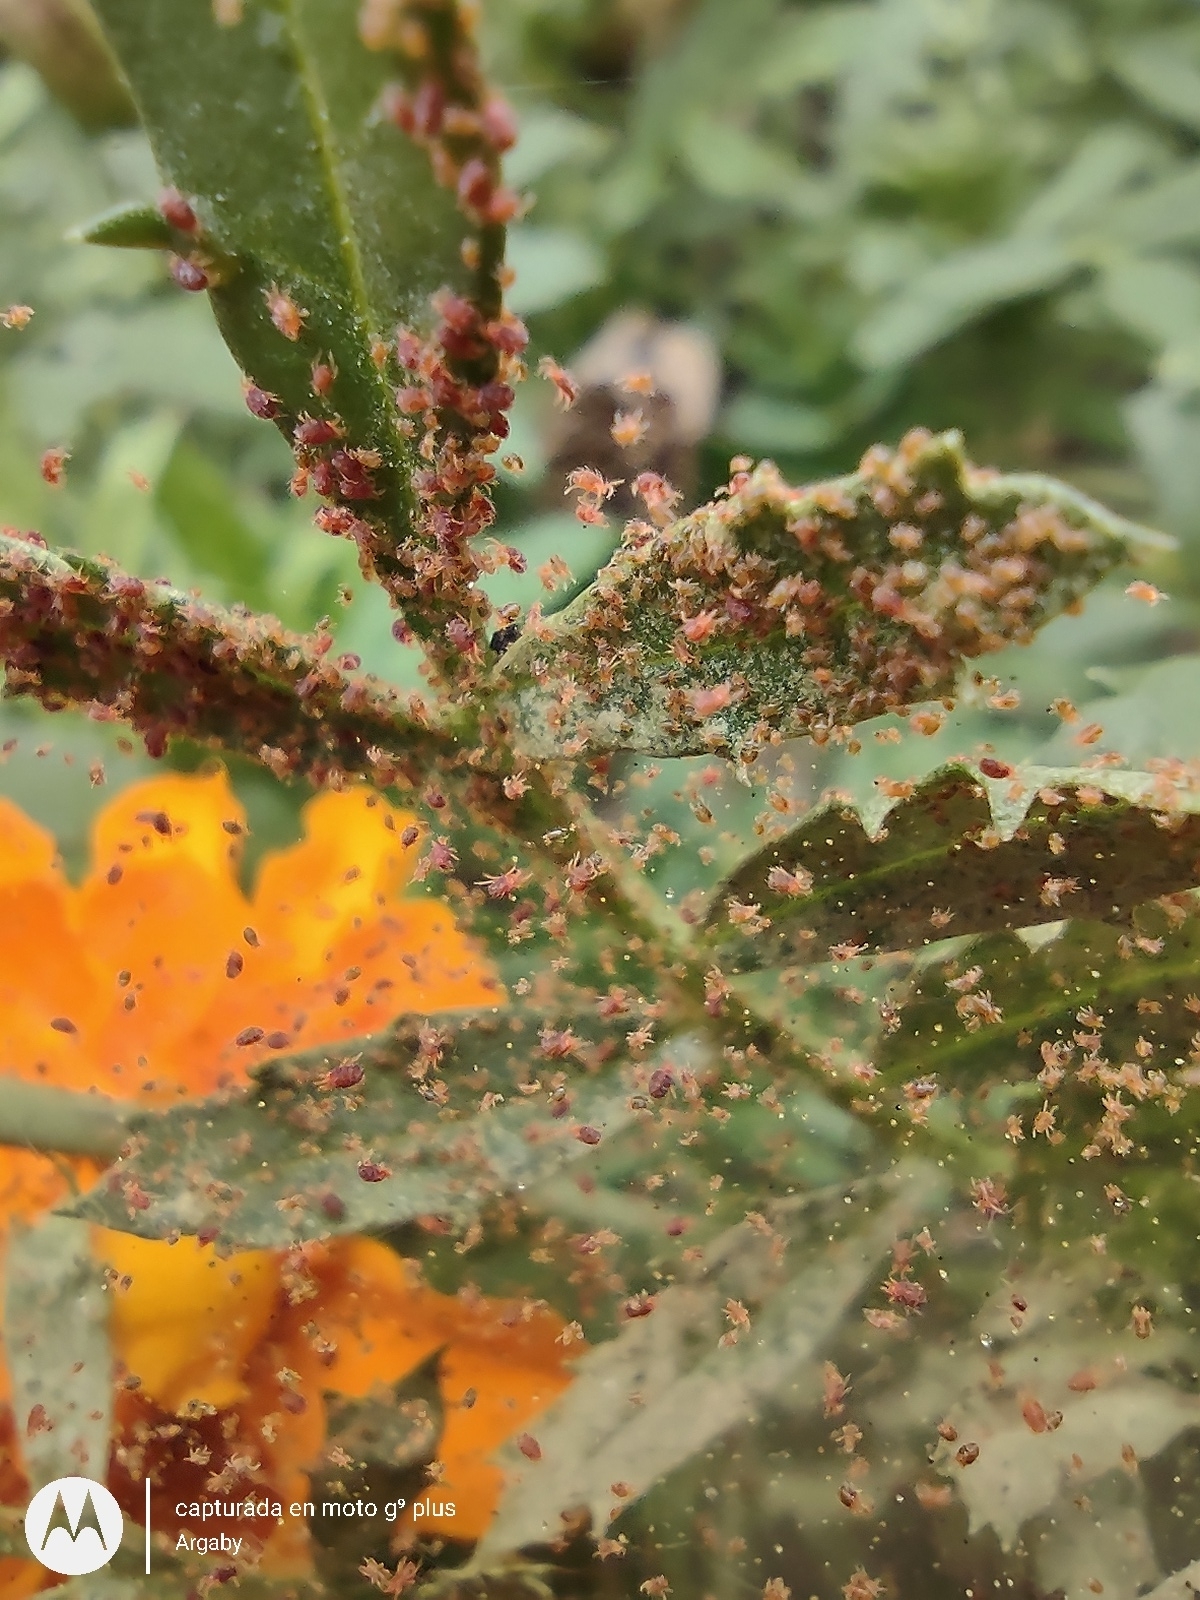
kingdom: Animalia
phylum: Arthropoda
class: Arachnida
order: Trombidiformes
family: Tetranychidae
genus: Tetranychus
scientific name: Tetranychus urticae
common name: Carmine spider mite
